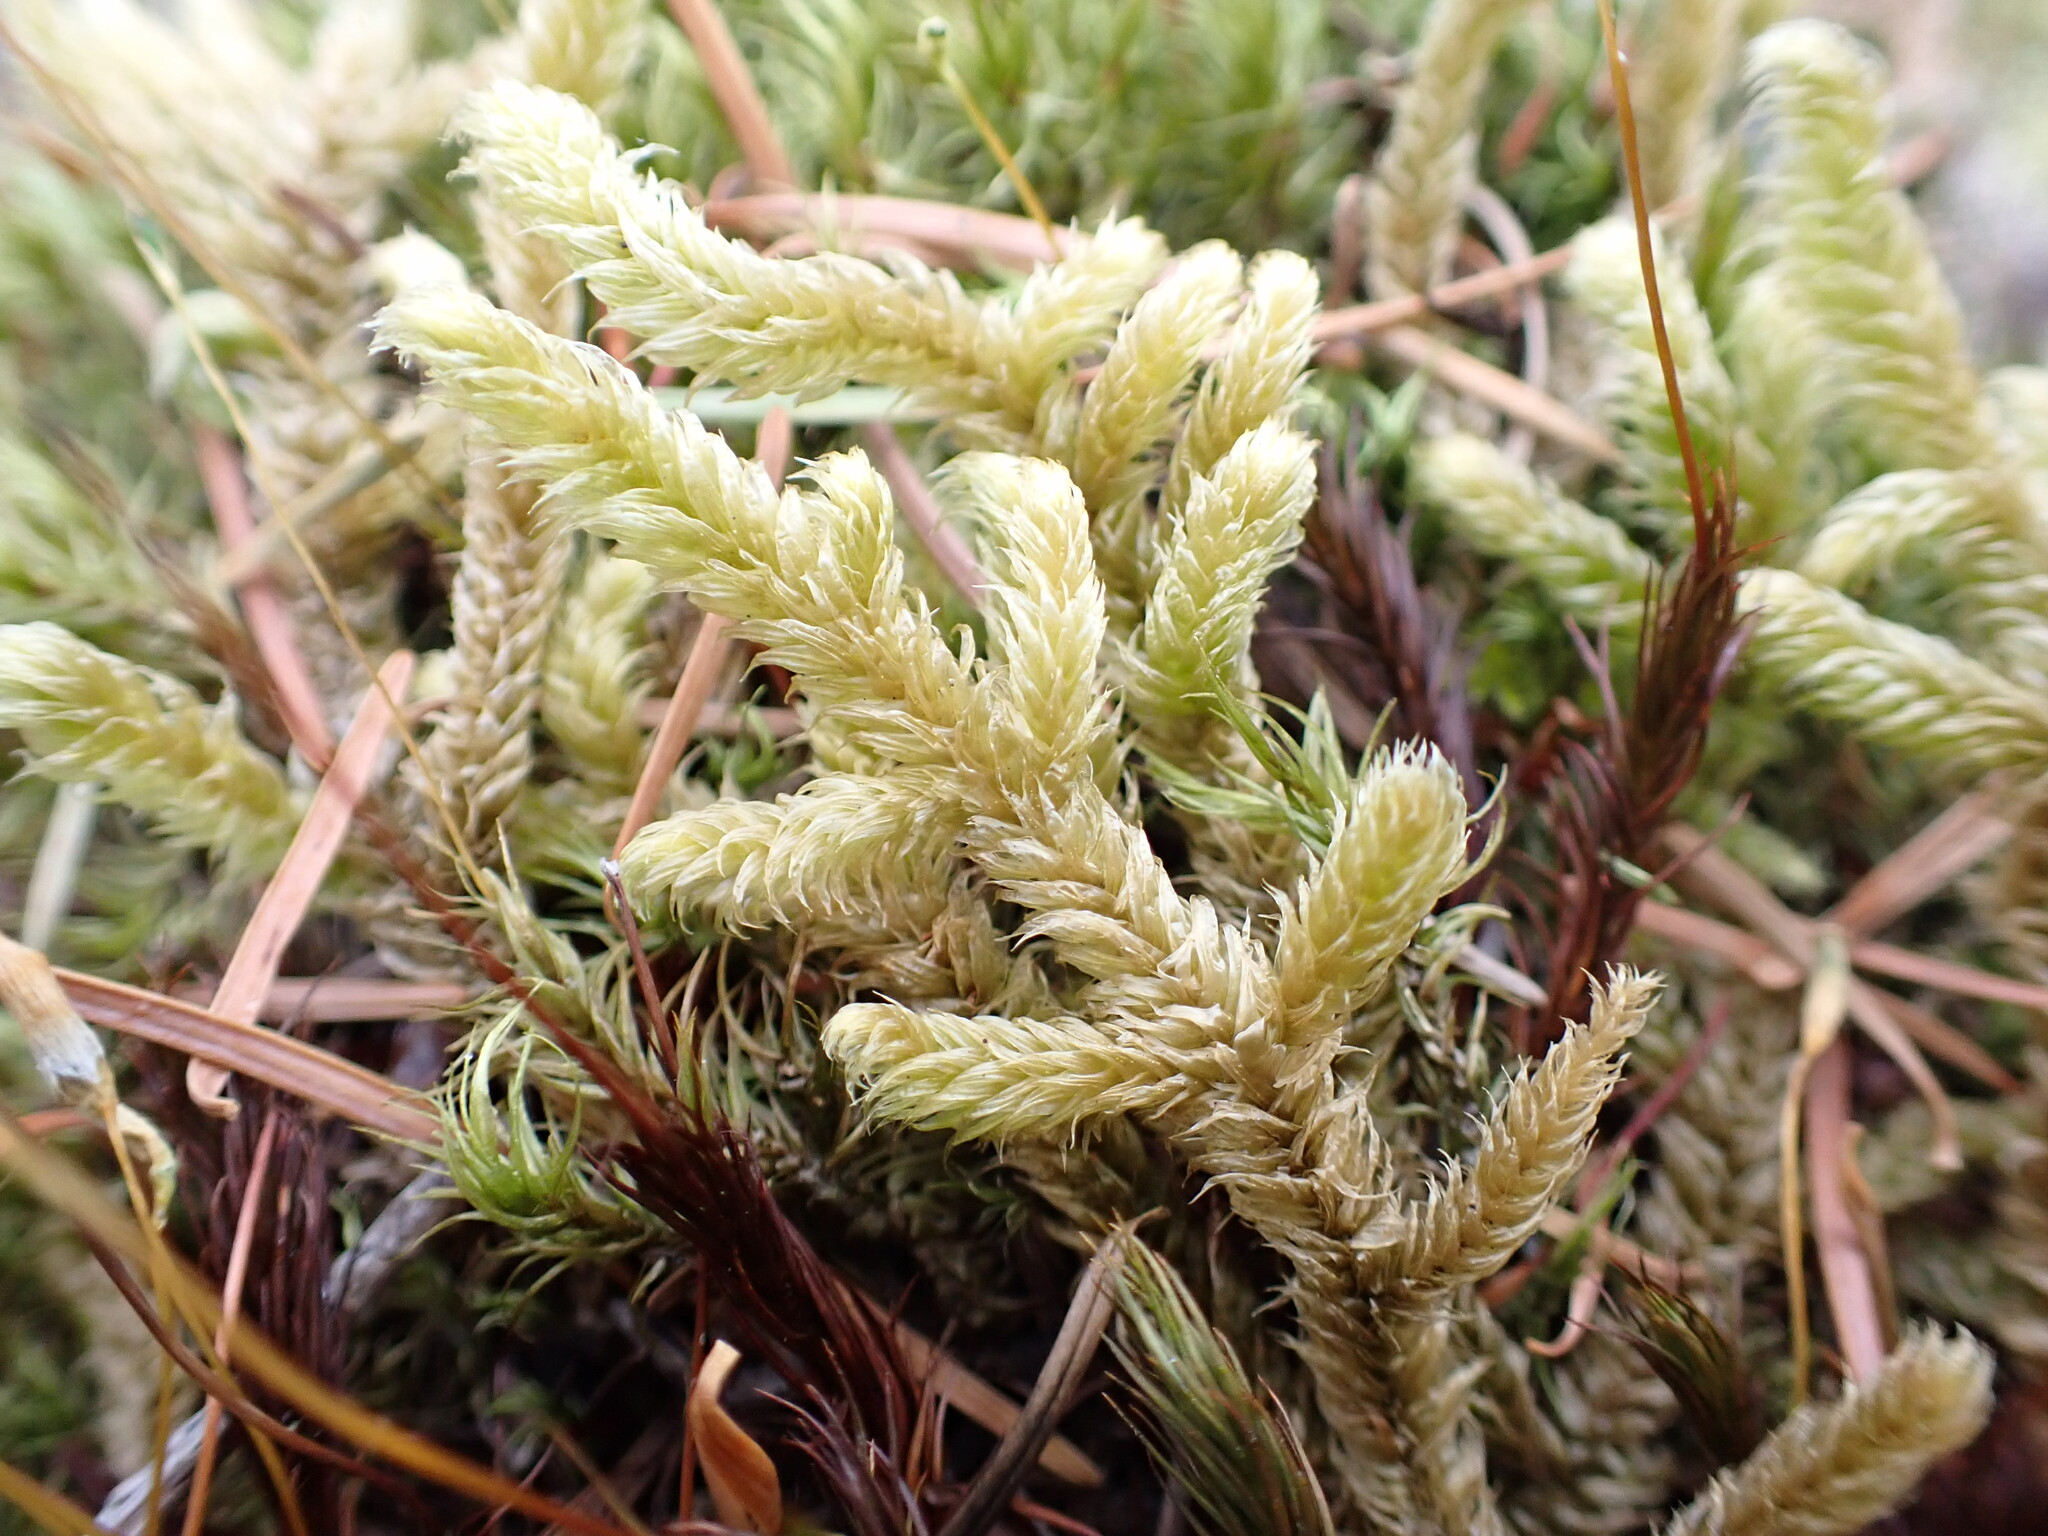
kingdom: Plantae
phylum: Bryophyta
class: Bryopsida
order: Hypnales
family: Hylocomiaceae
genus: Rhytidiopsis
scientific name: Rhytidiopsis robusta
